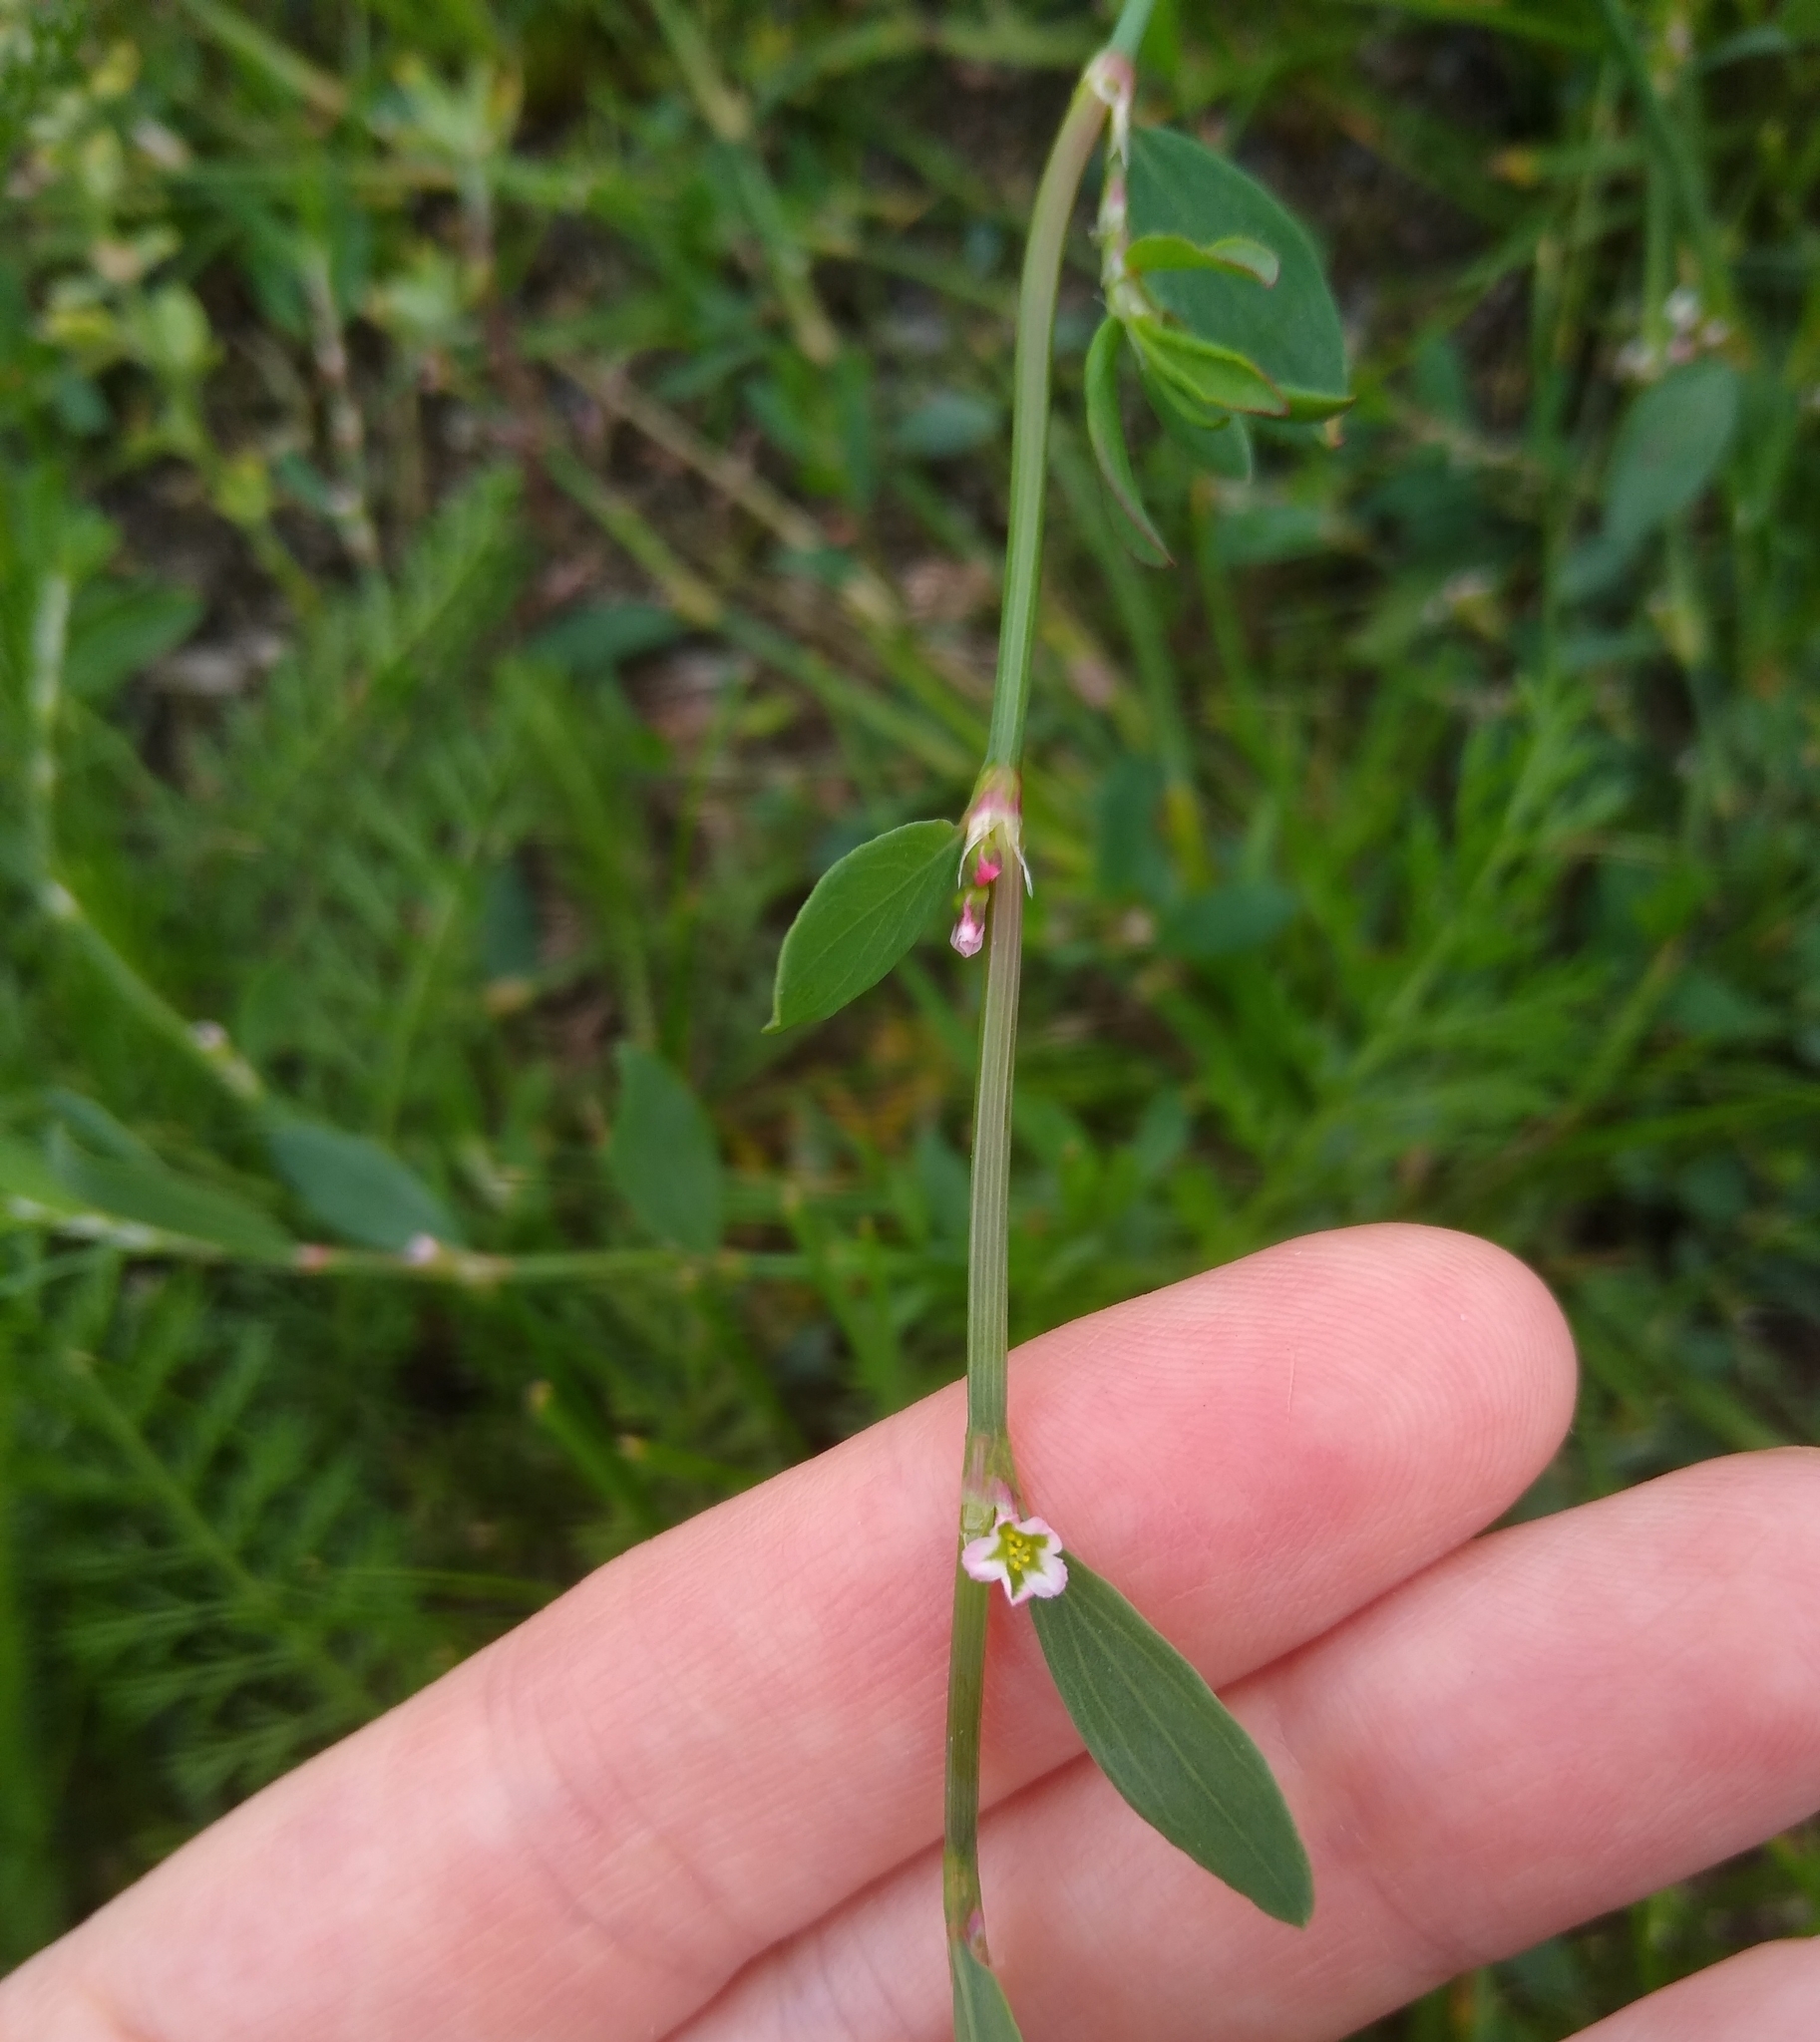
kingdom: Plantae
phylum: Tracheophyta
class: Magnoliopsida
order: Caryophyllales
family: Polygonaceae
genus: Polygonum
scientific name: Polygonum aviculare
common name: Prostrate knotweed
